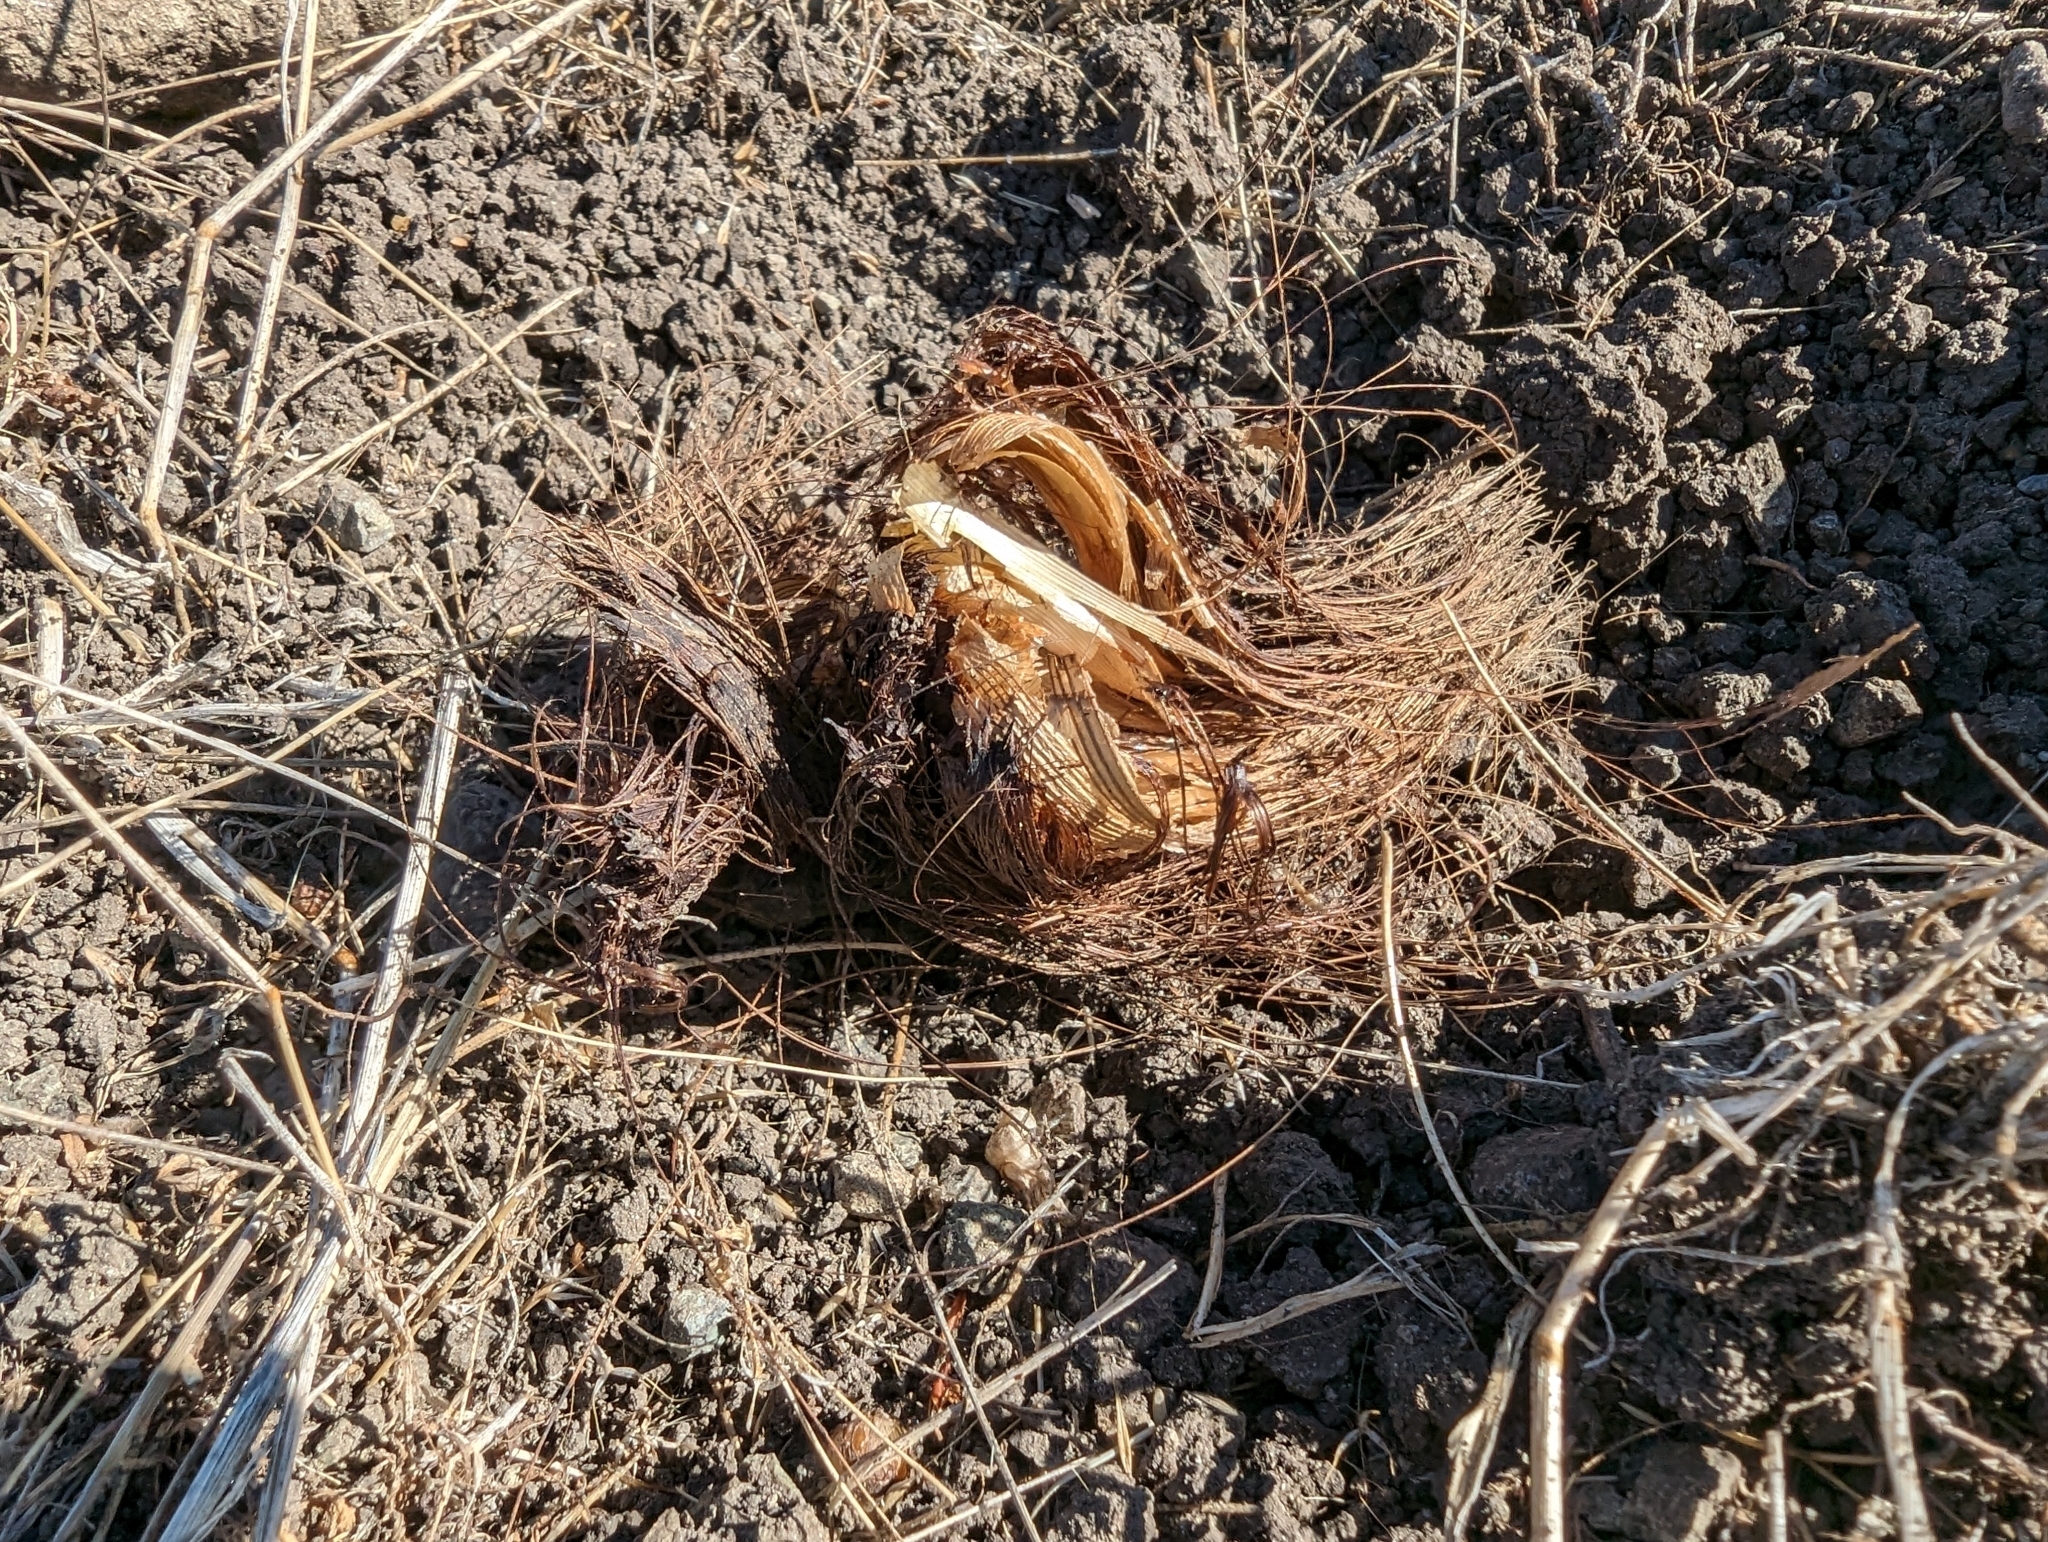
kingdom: Plantae
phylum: Tracheophyta
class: Liliopsida
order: Asparagales
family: Asparagaceae
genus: Chlorogalum
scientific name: Chlorogalum pomeridianum
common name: Amole
